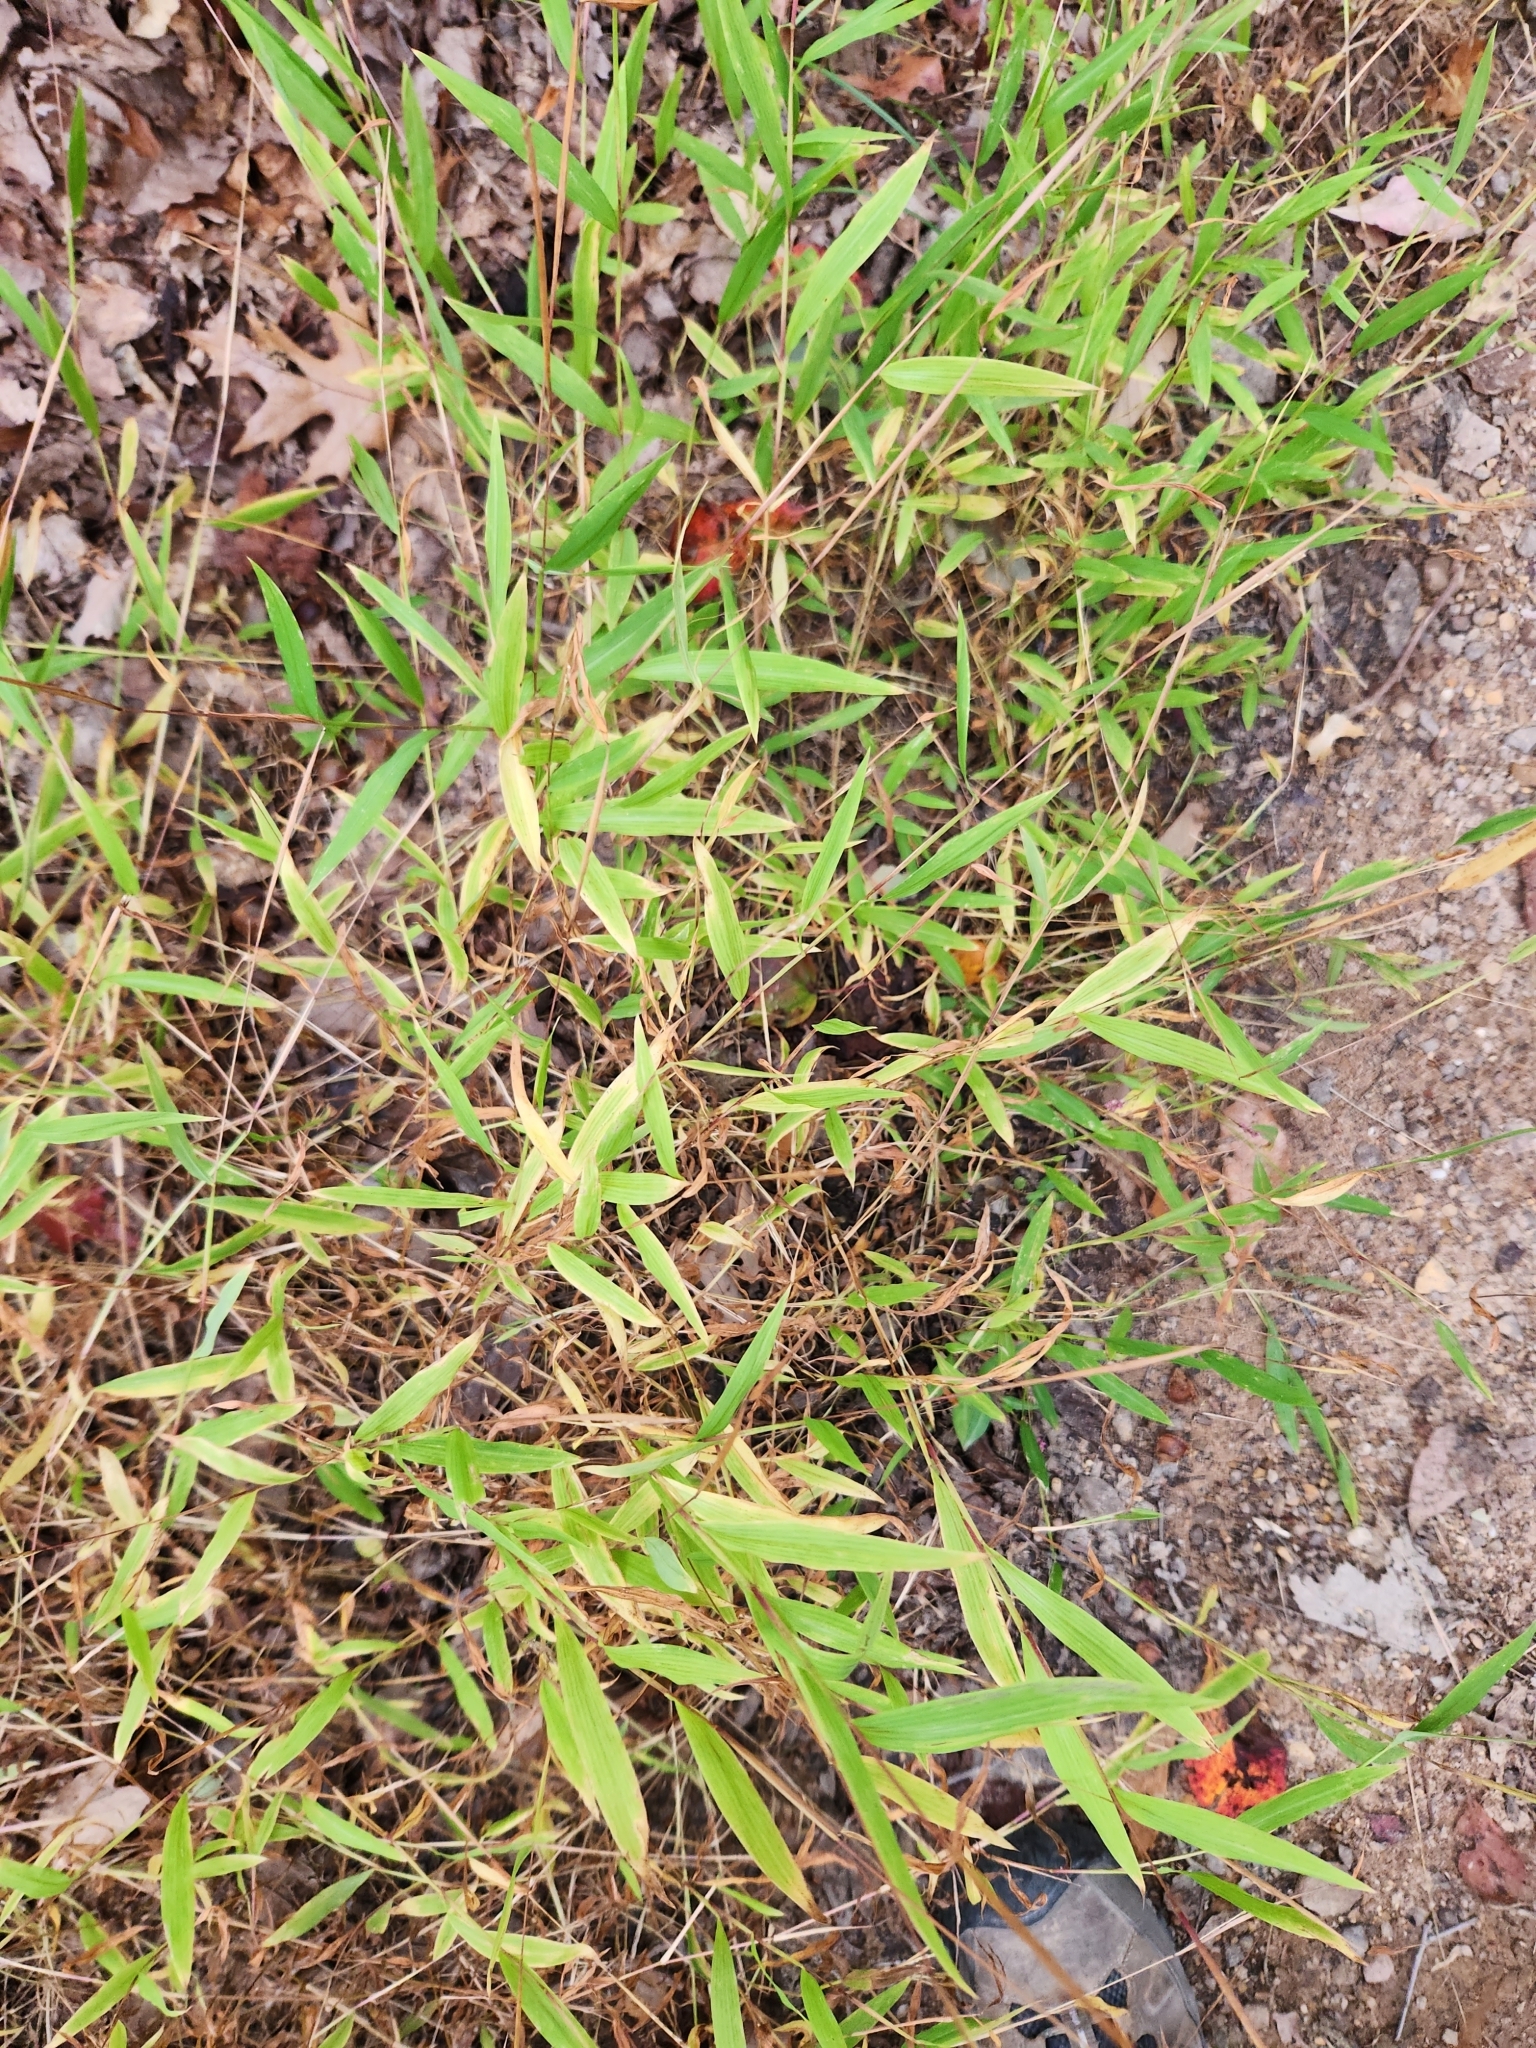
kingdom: Plantae
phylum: Tracheophyta
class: Liliopsida
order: Poales
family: Poaceae
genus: Microstegium
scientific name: Microstegium vimineum
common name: Japanese stiltgrass
